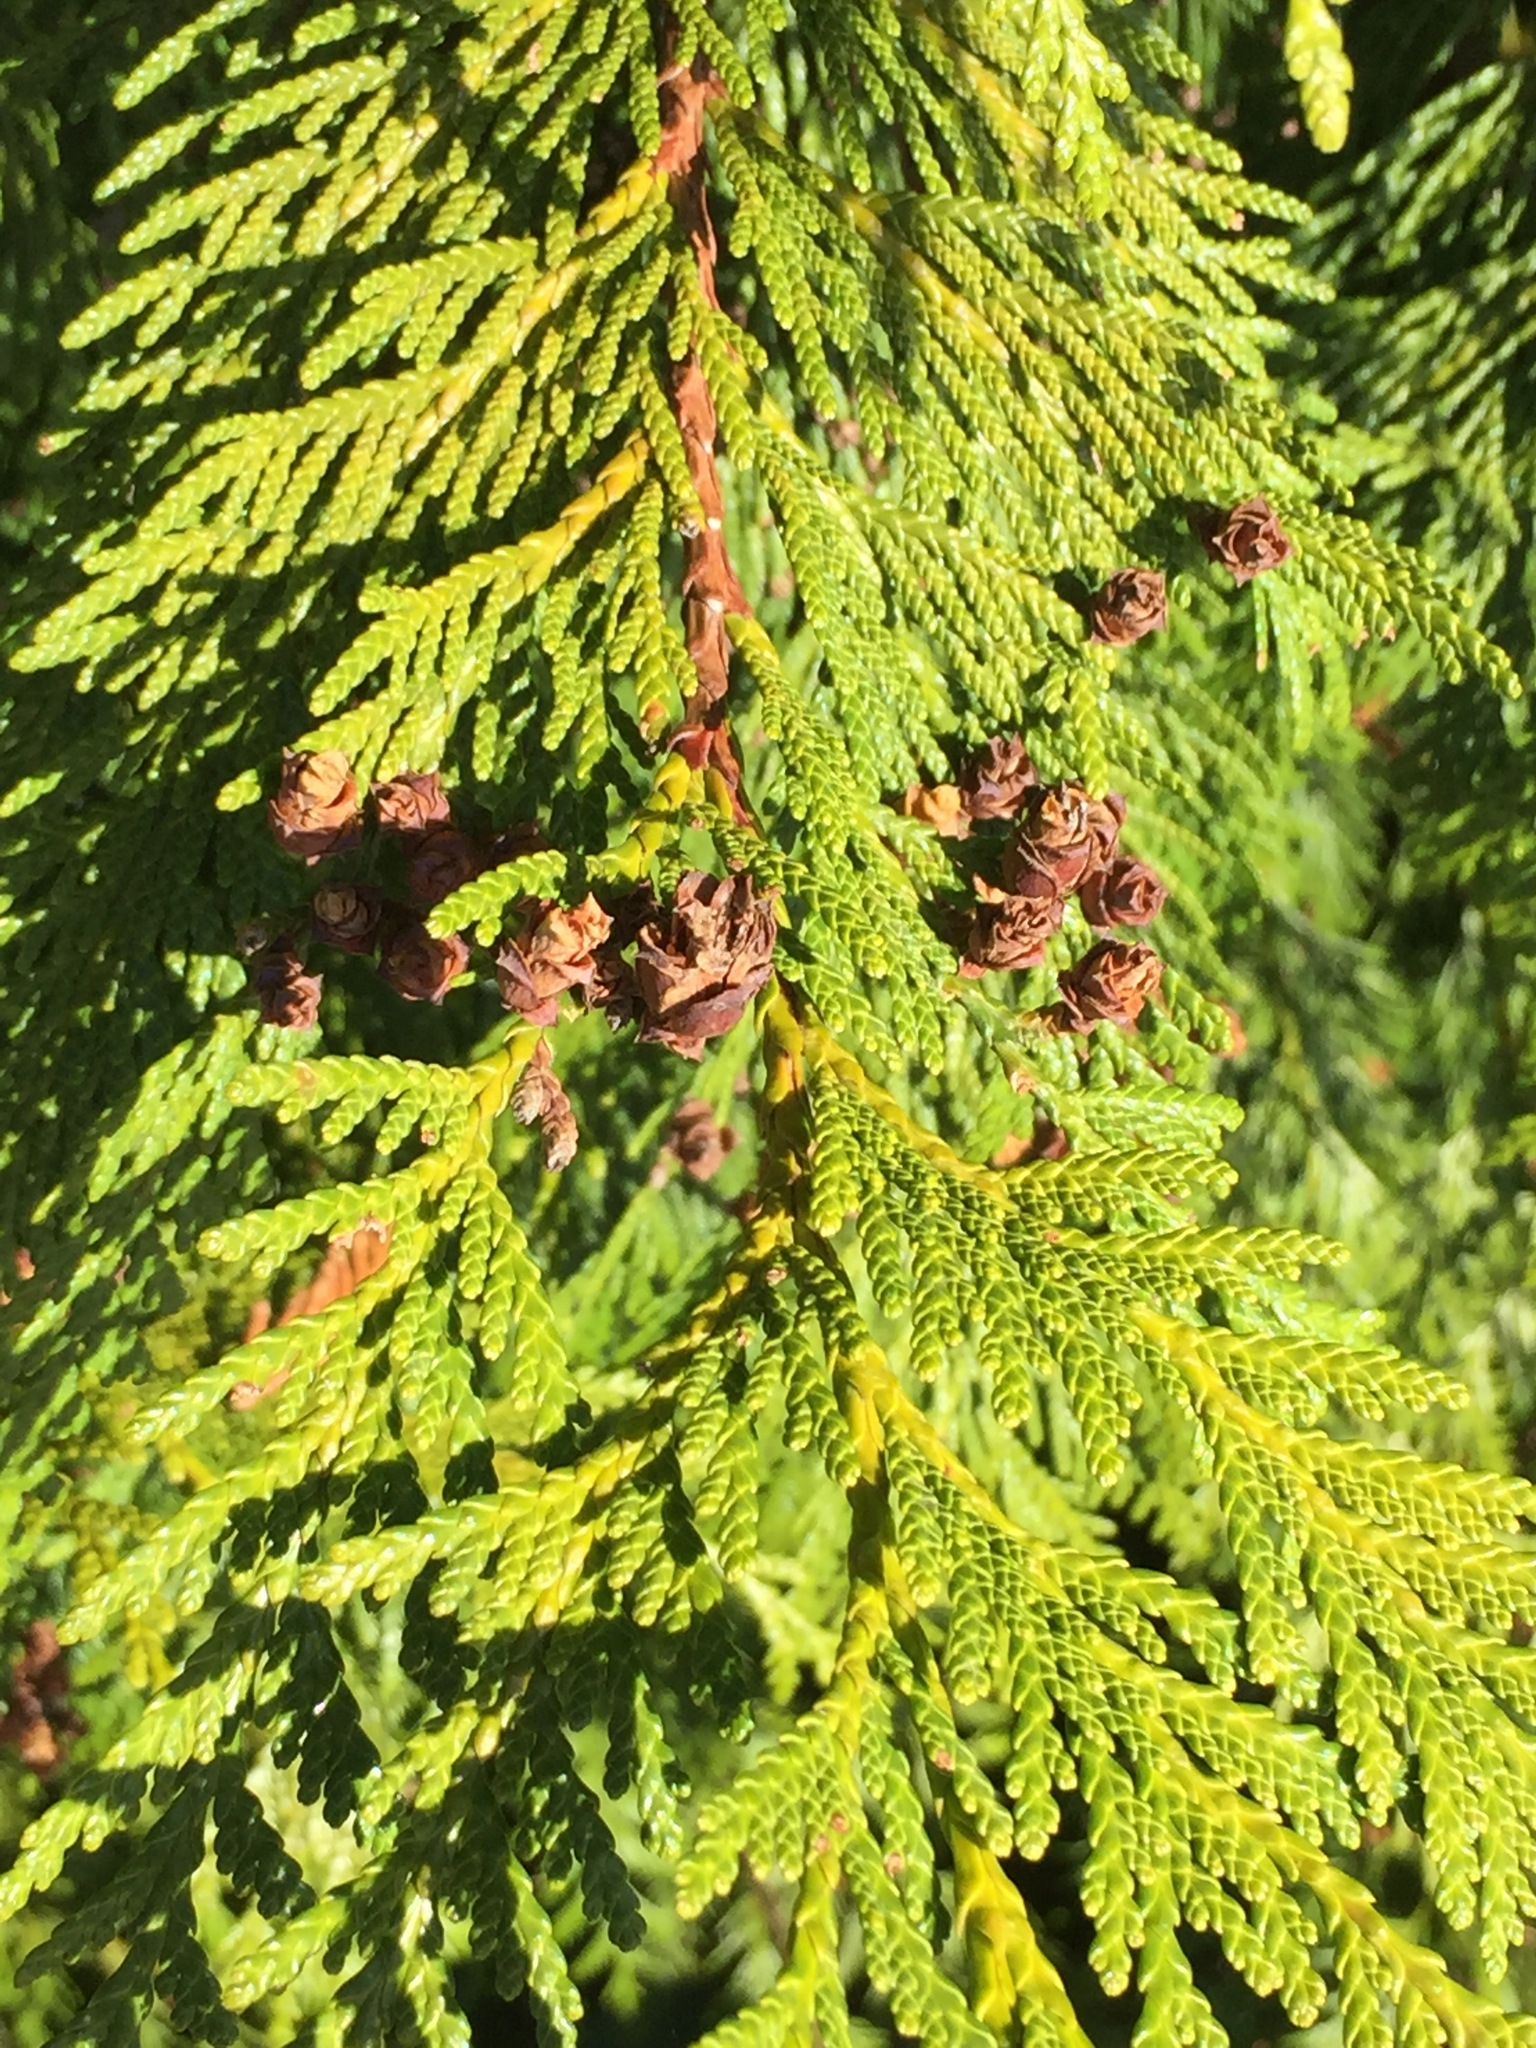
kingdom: Plantae
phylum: Tracheophyta
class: Pinopsida
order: Pinales
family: Cupressaceae
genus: Thuja
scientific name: Thuja plicata
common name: Western red-cedar
